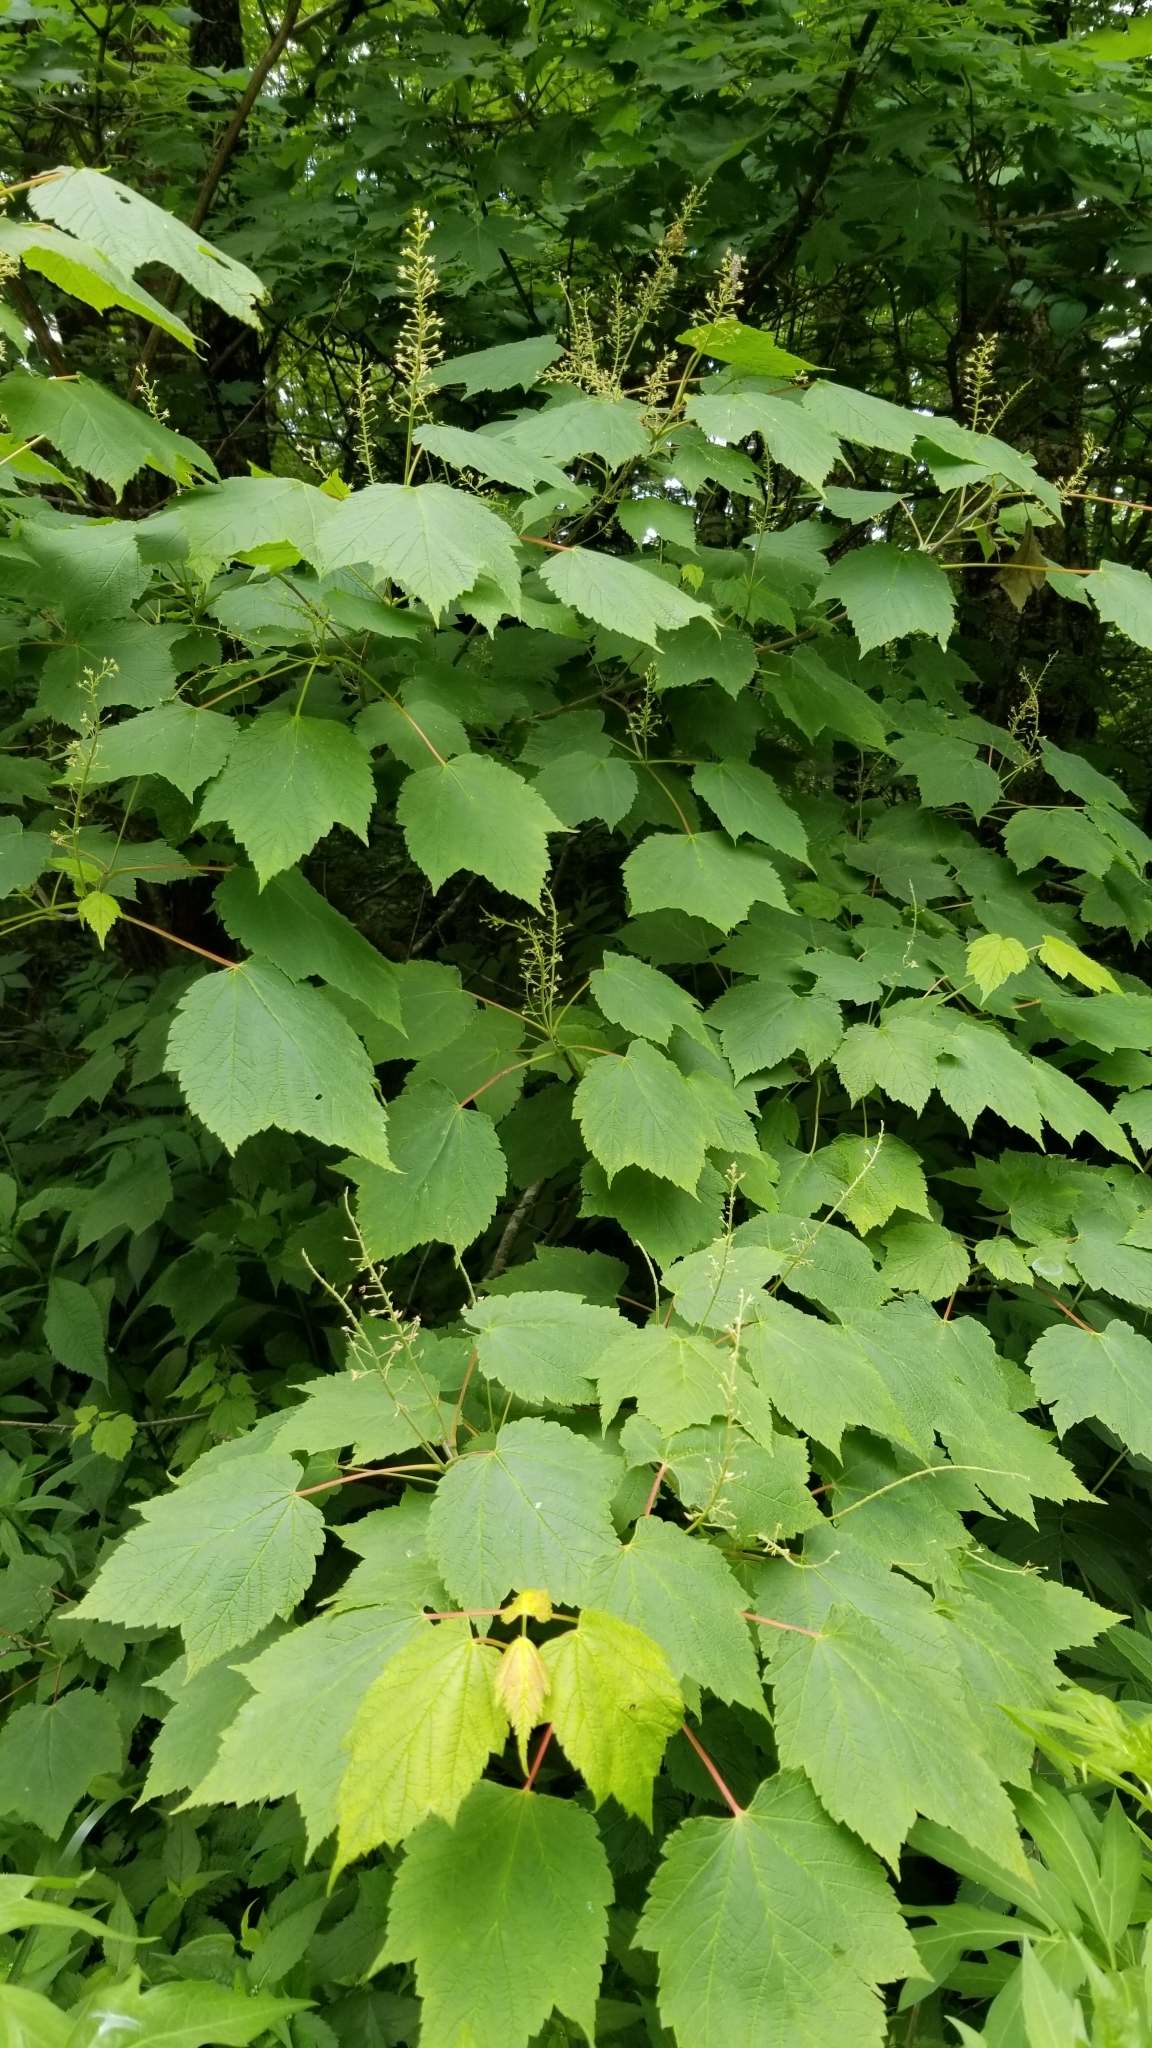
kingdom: Plantae
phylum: Tracheophyta
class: Magnoliopsida
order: Sapindales
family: Sapindaceae
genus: Acer
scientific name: Acer spicatum
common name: Mountain maple
